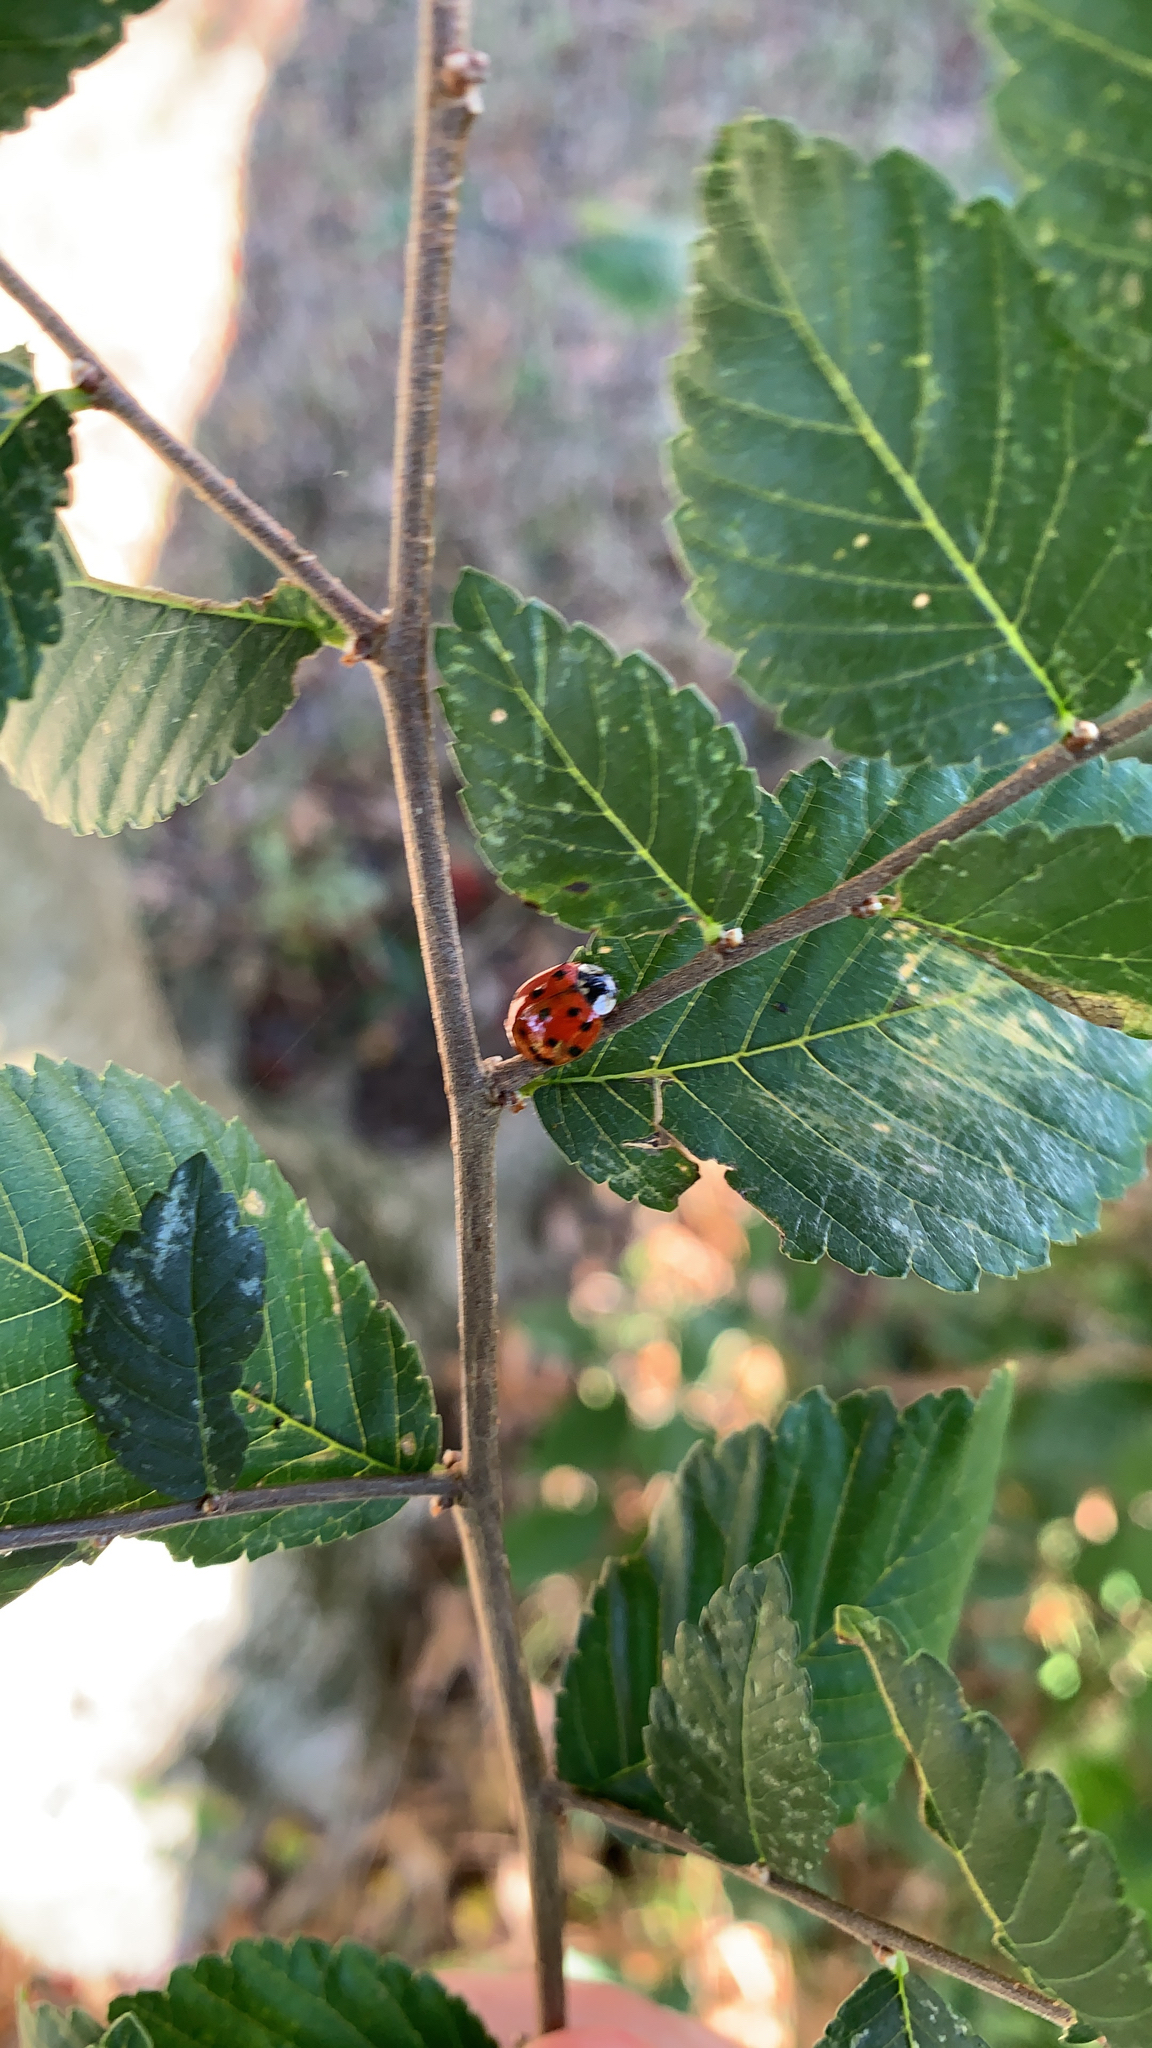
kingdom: Animalia
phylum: Arthropoda
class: Insecta
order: Coleoptera
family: Coccinellidae
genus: Harmonia
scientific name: Harmonia axyridis
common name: Harlequin ladybird
